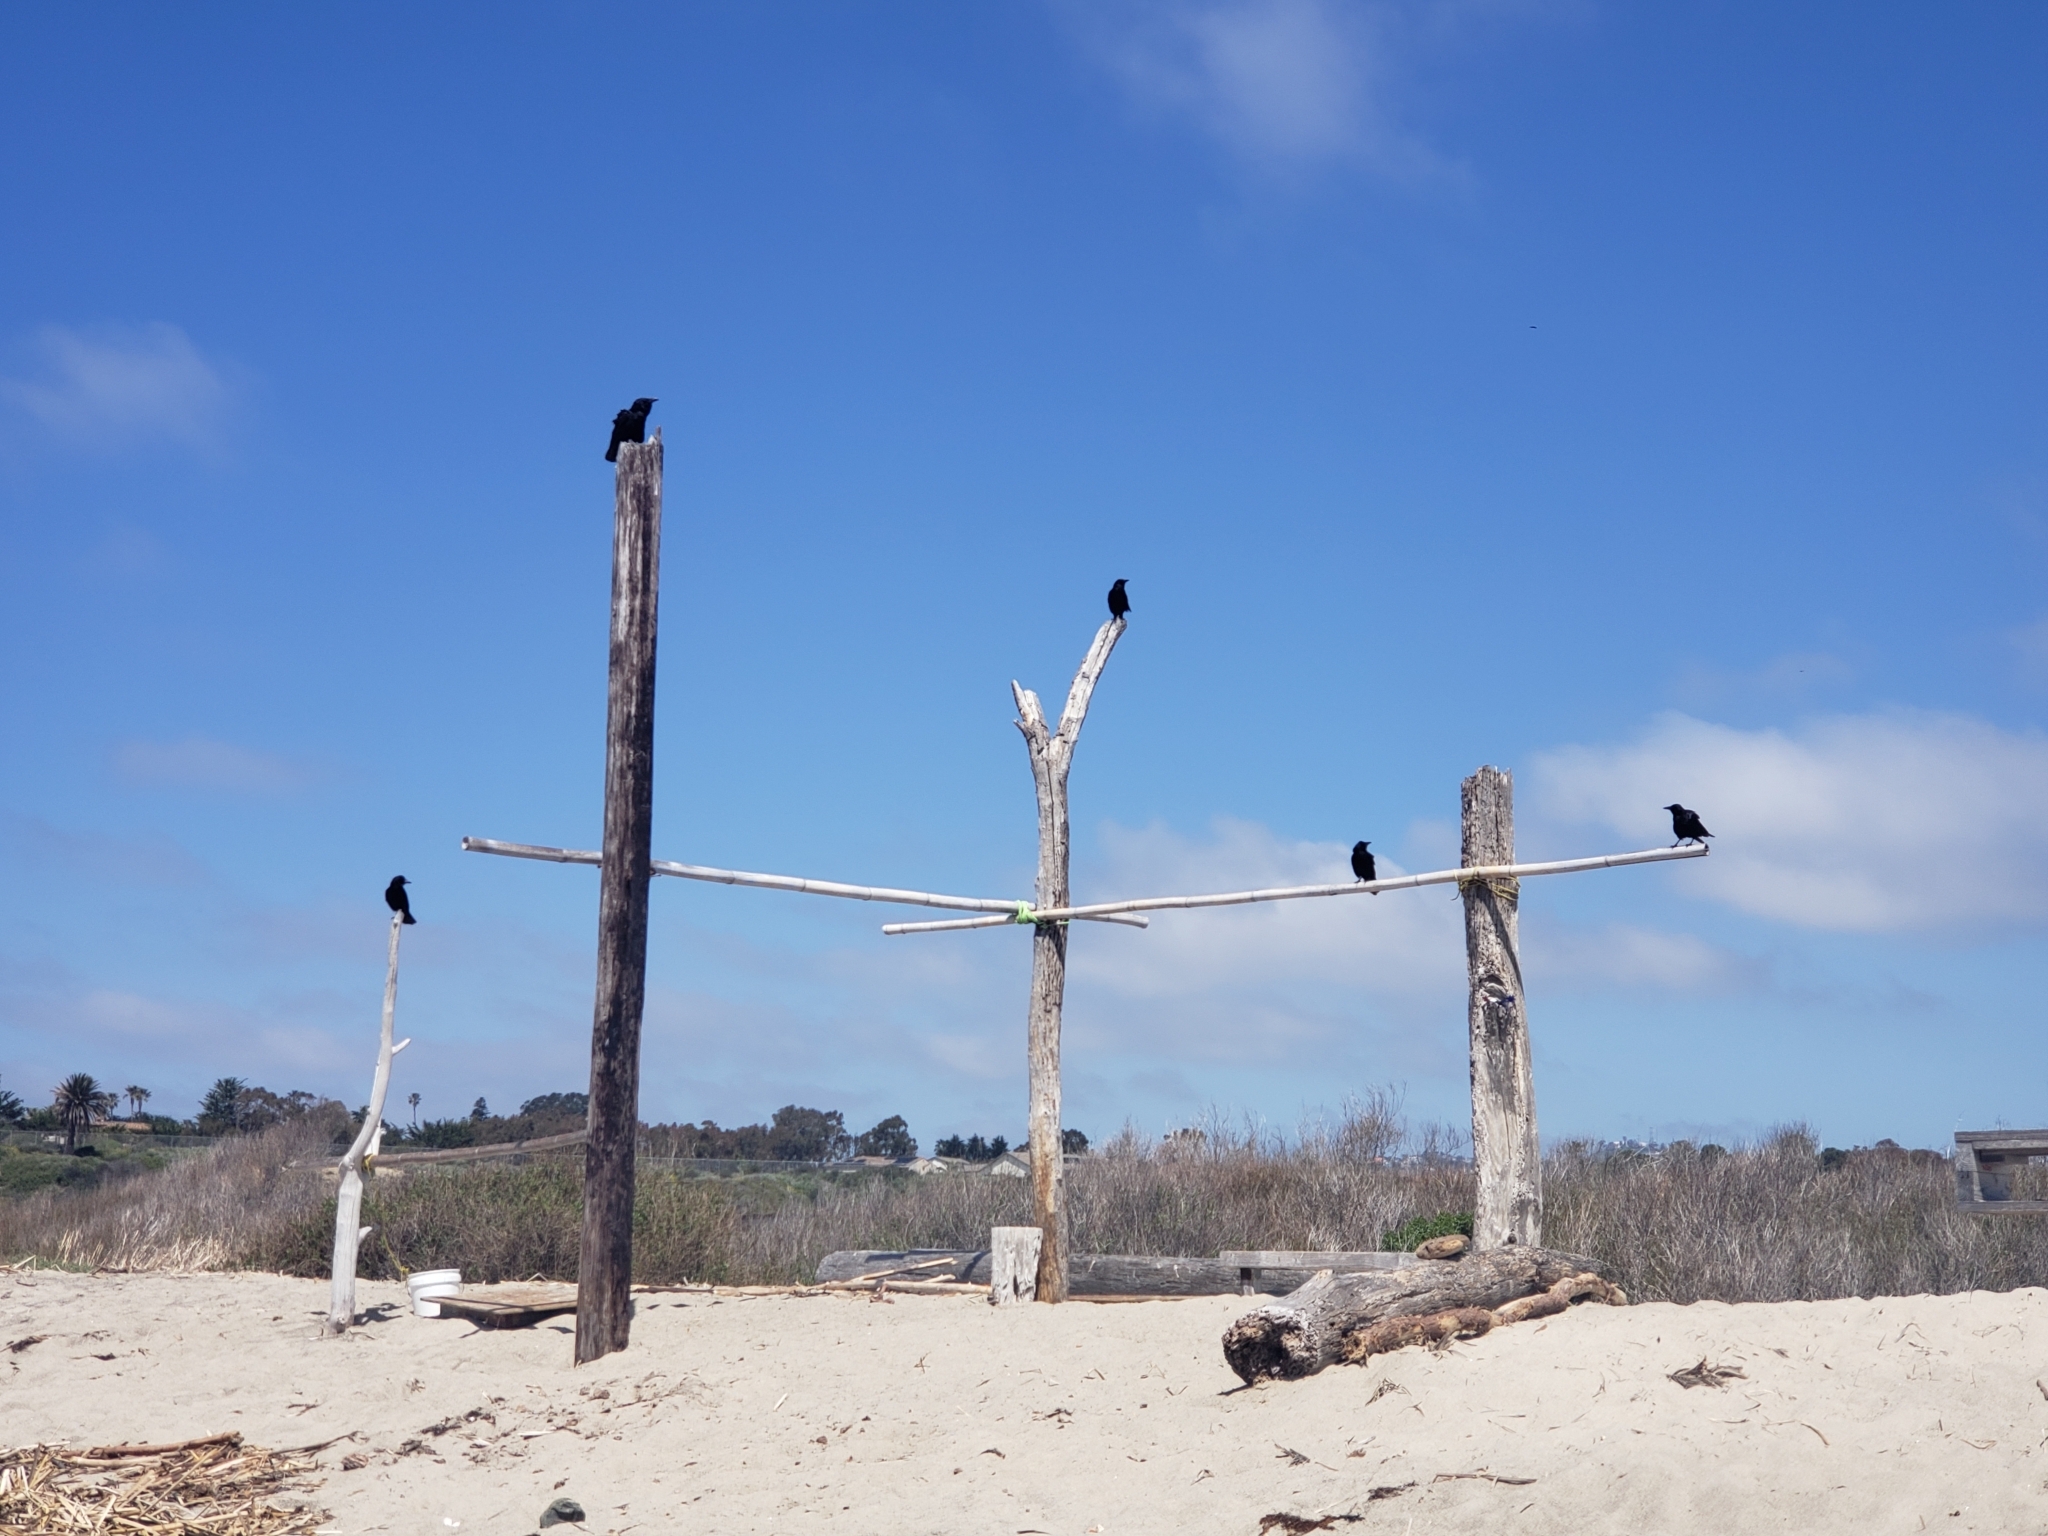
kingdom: Animalia
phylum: Chordata
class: Aves
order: Passeriformes
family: Corvidae
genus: Corvus
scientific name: Corvus corax
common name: Common raven
